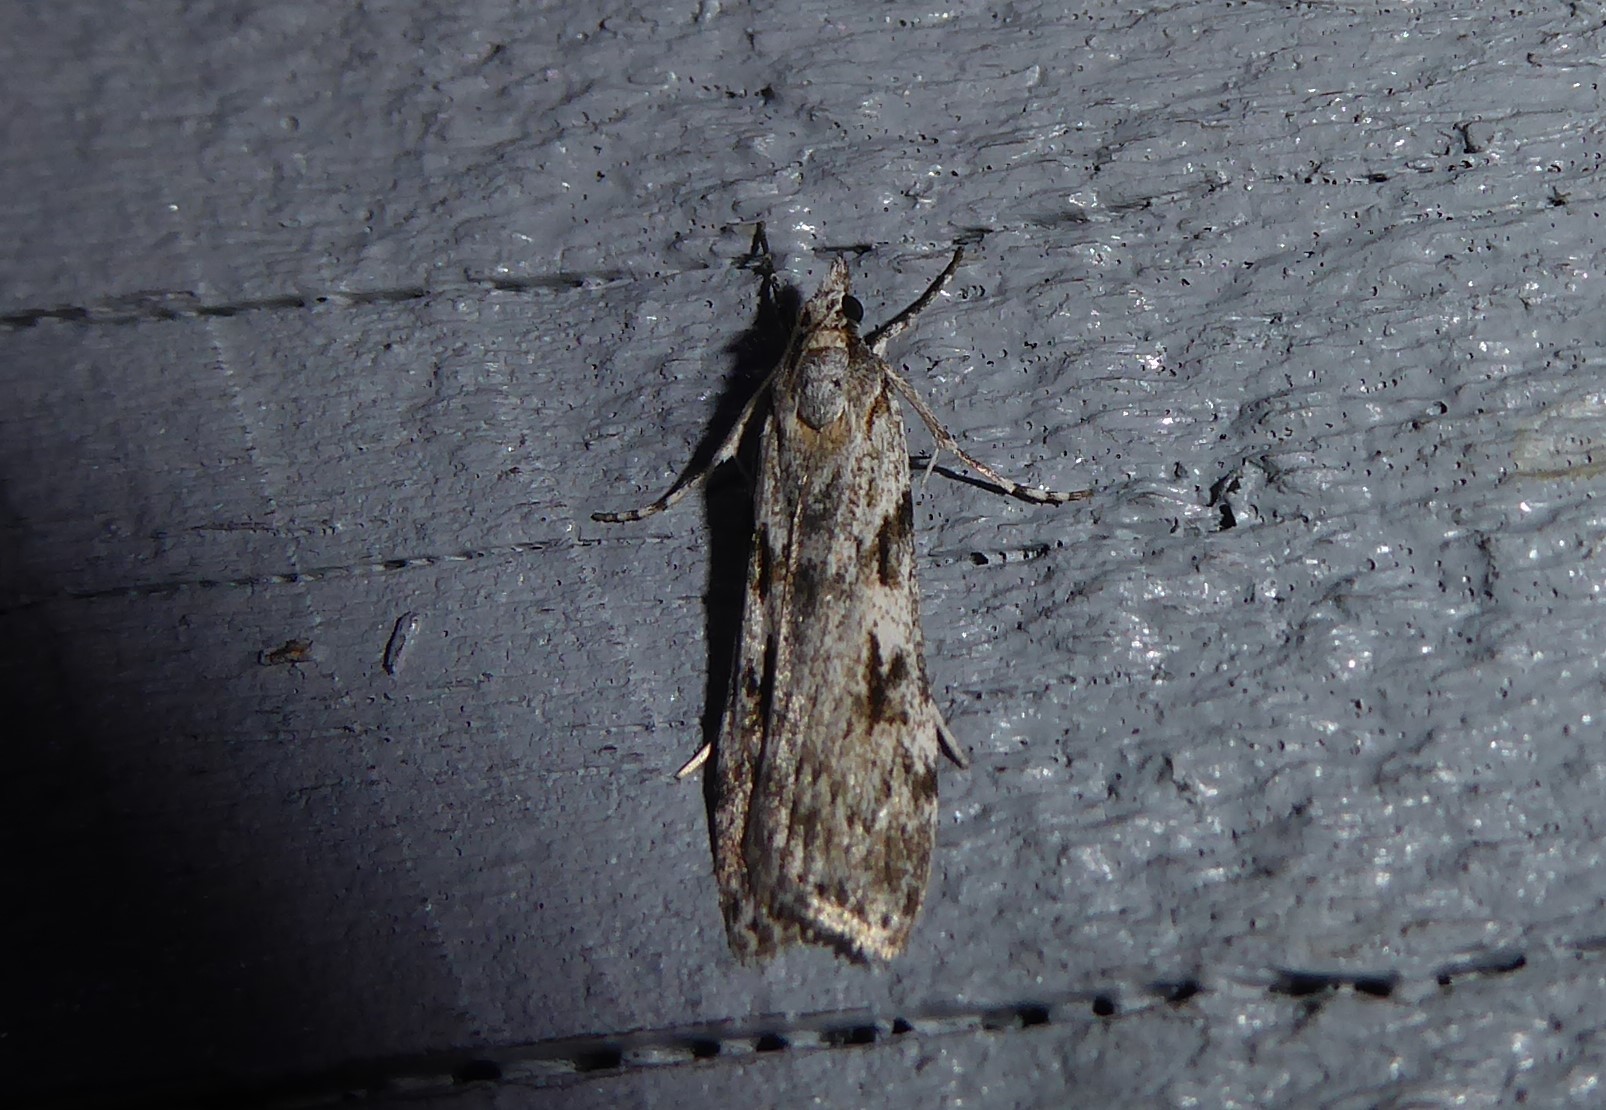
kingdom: Animalia
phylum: Arthropoda
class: Insecta
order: Lepidoptera
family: Crambidae
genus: Scoparia
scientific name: Scoparia halopis
